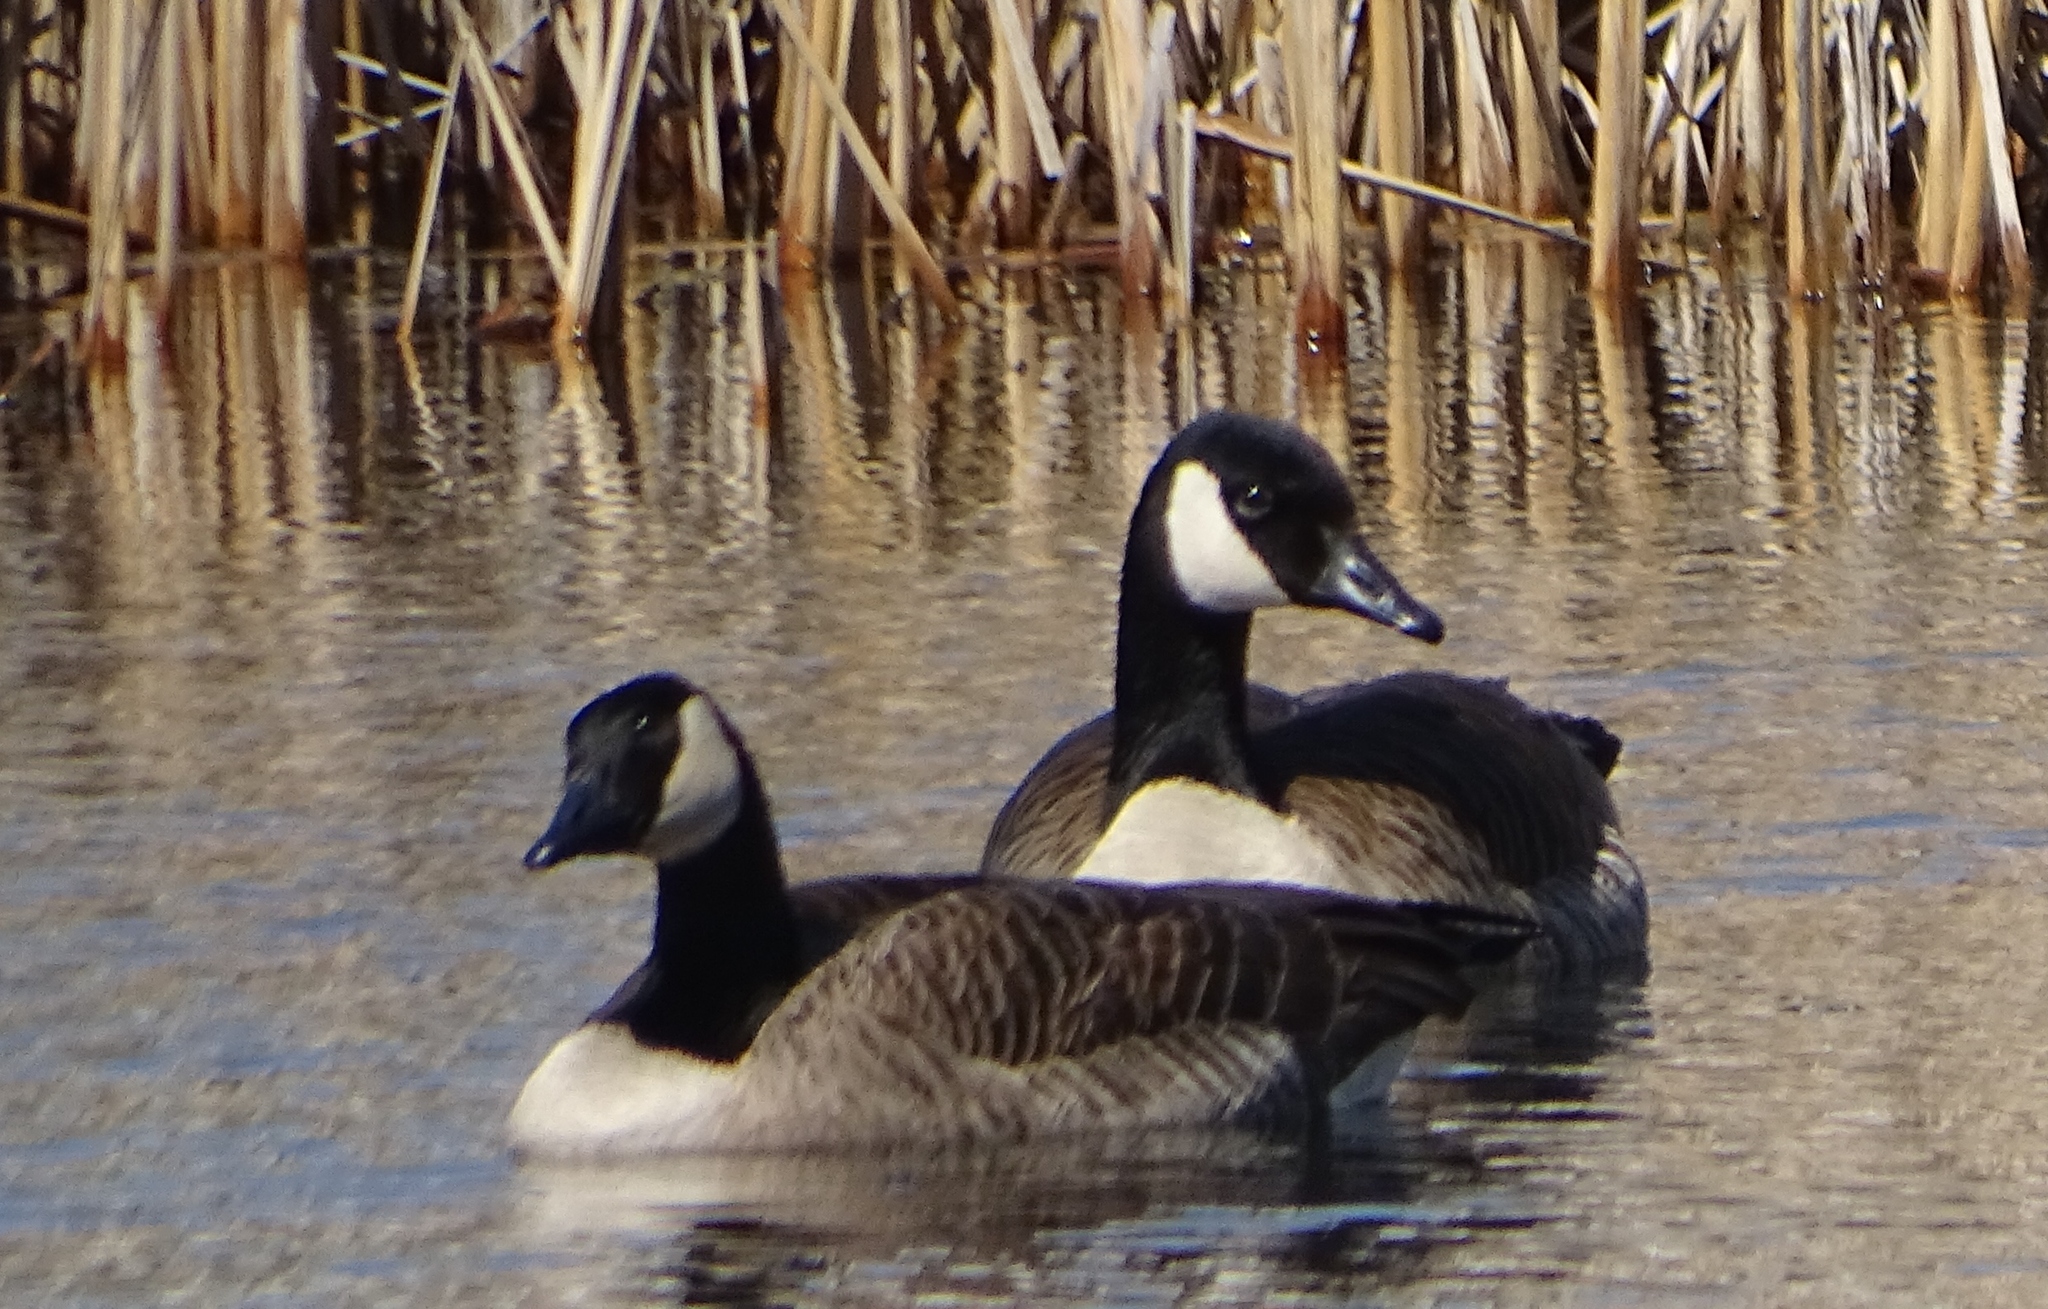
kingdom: Animalia
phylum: Chordata
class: Aves
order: Anseriformes
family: Anatidae
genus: Branta
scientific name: Branta canadensis
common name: Canada goose
